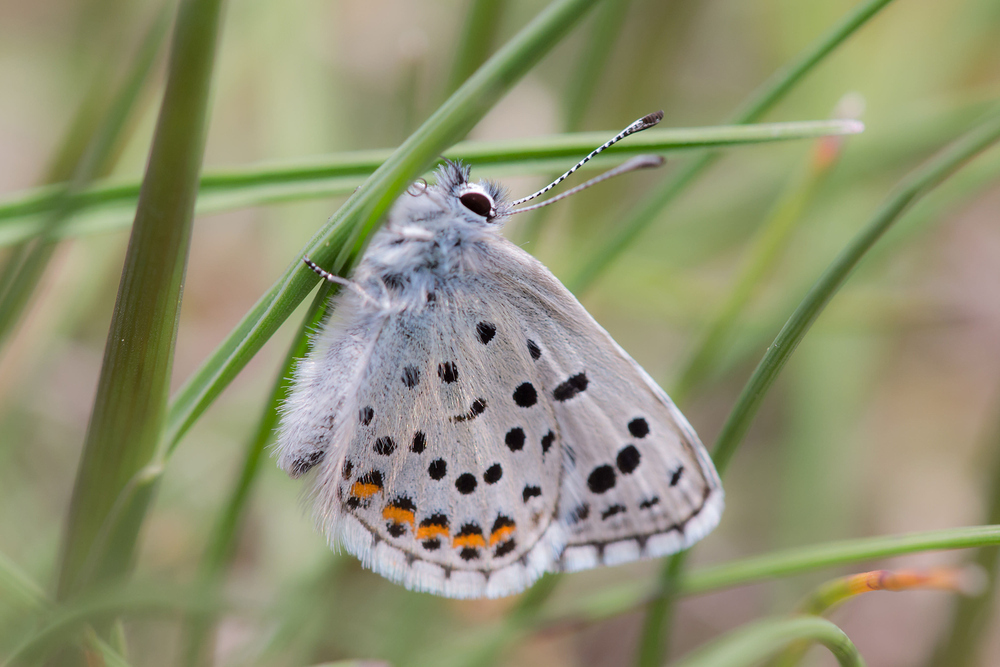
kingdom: Animalia
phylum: Arthropoda
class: Insecta
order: Lepidoptera
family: Lycaenidae
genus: Pseudophilotes
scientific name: Pseudophilotes baton
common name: Baton blue
